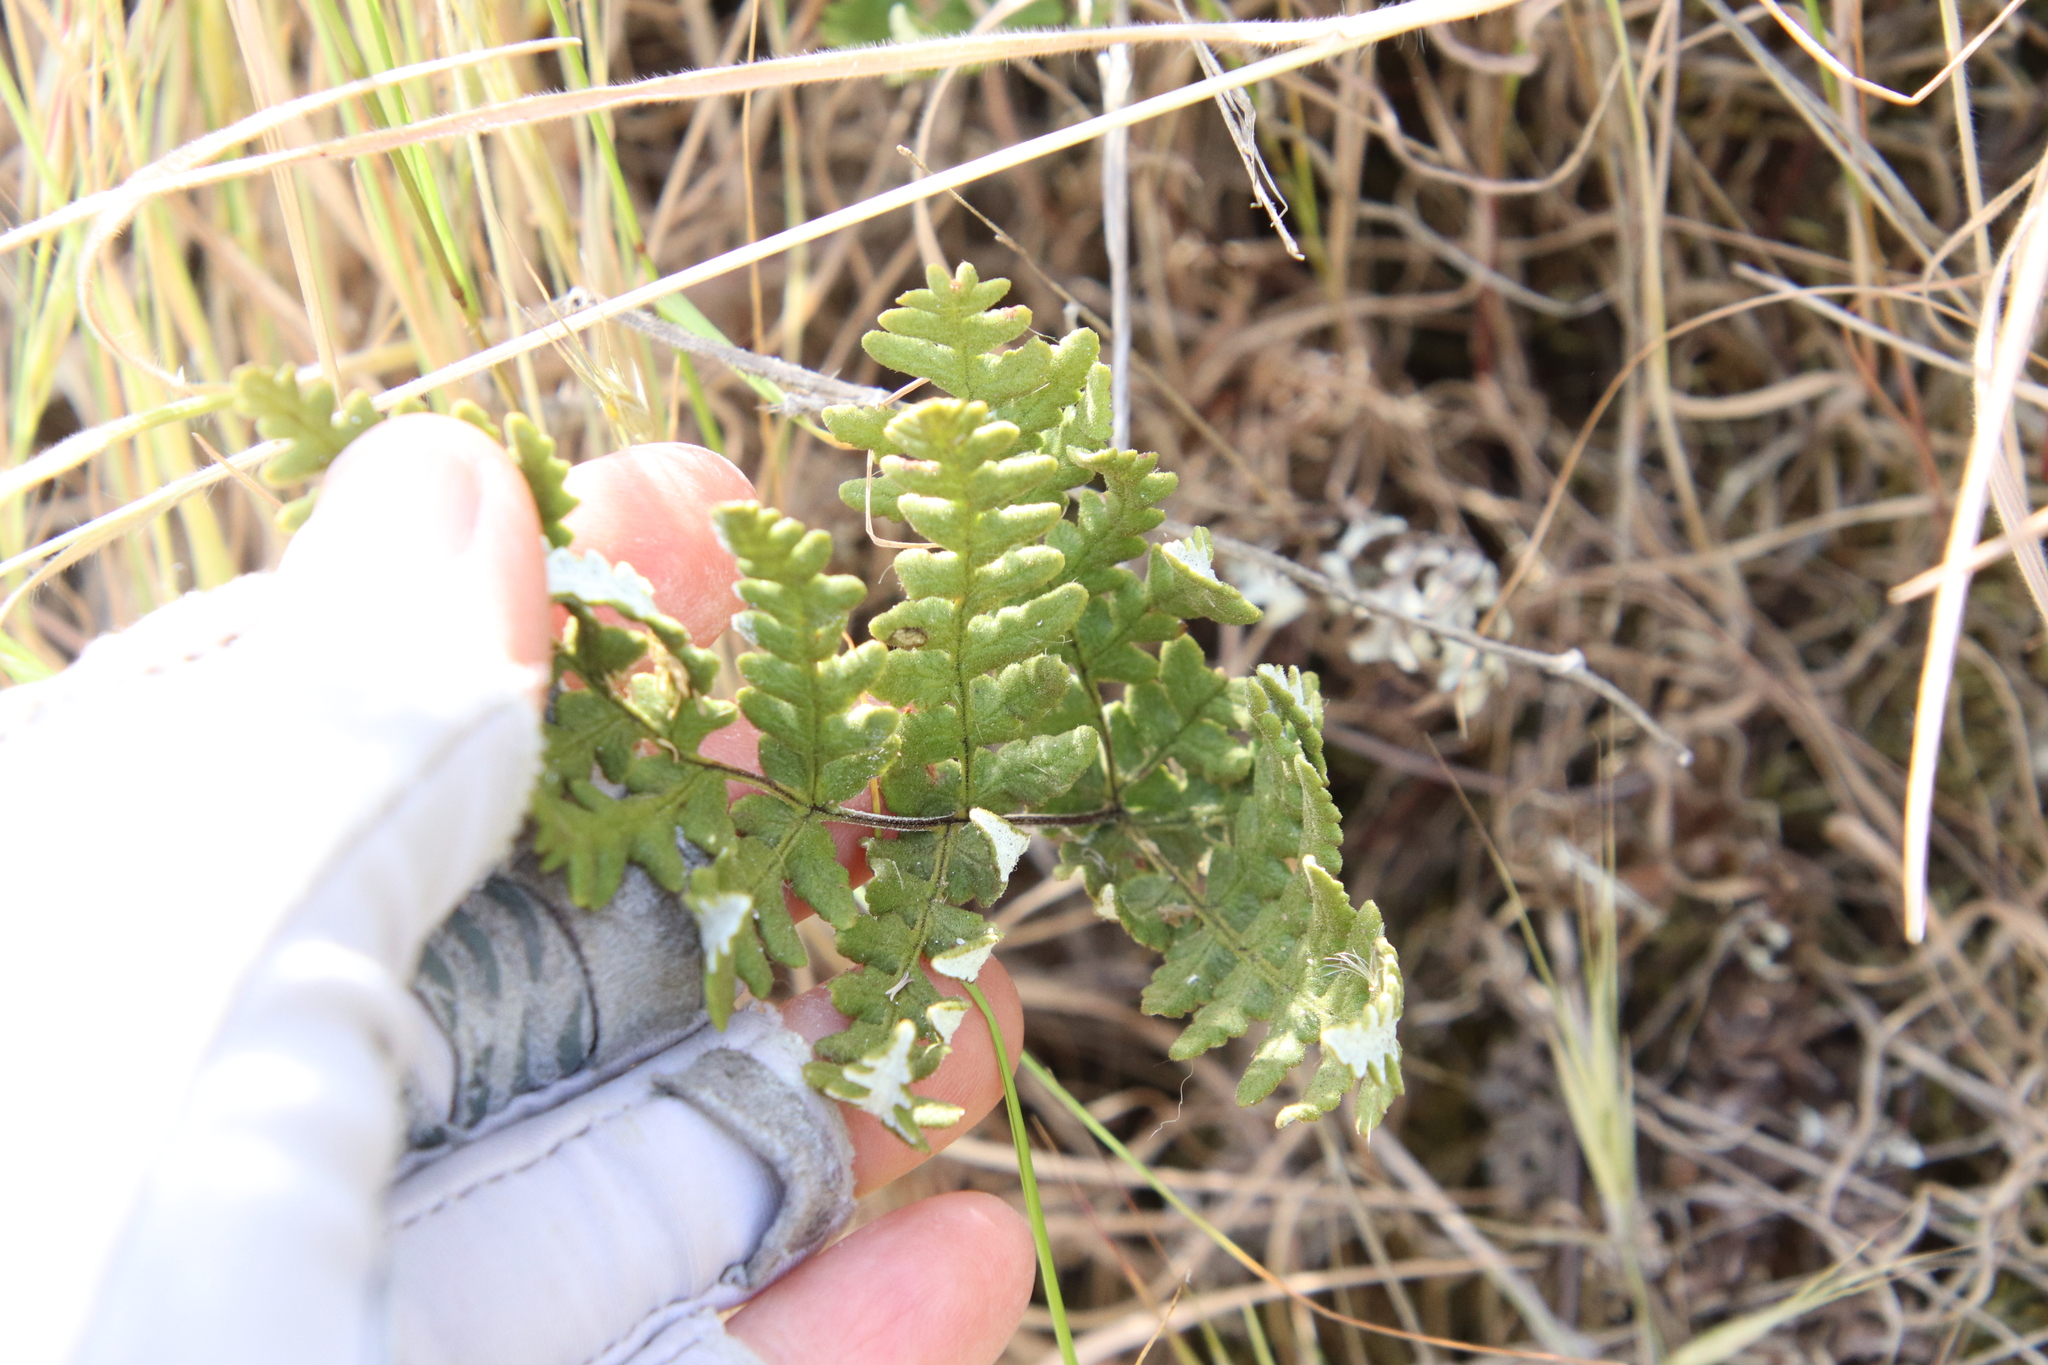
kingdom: Plantae
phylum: Tracheophyta
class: Polypodiopsida
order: Polypodiales
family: Pteridaceae
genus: Pentagramma
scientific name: Pentagramma glanduloviscida
